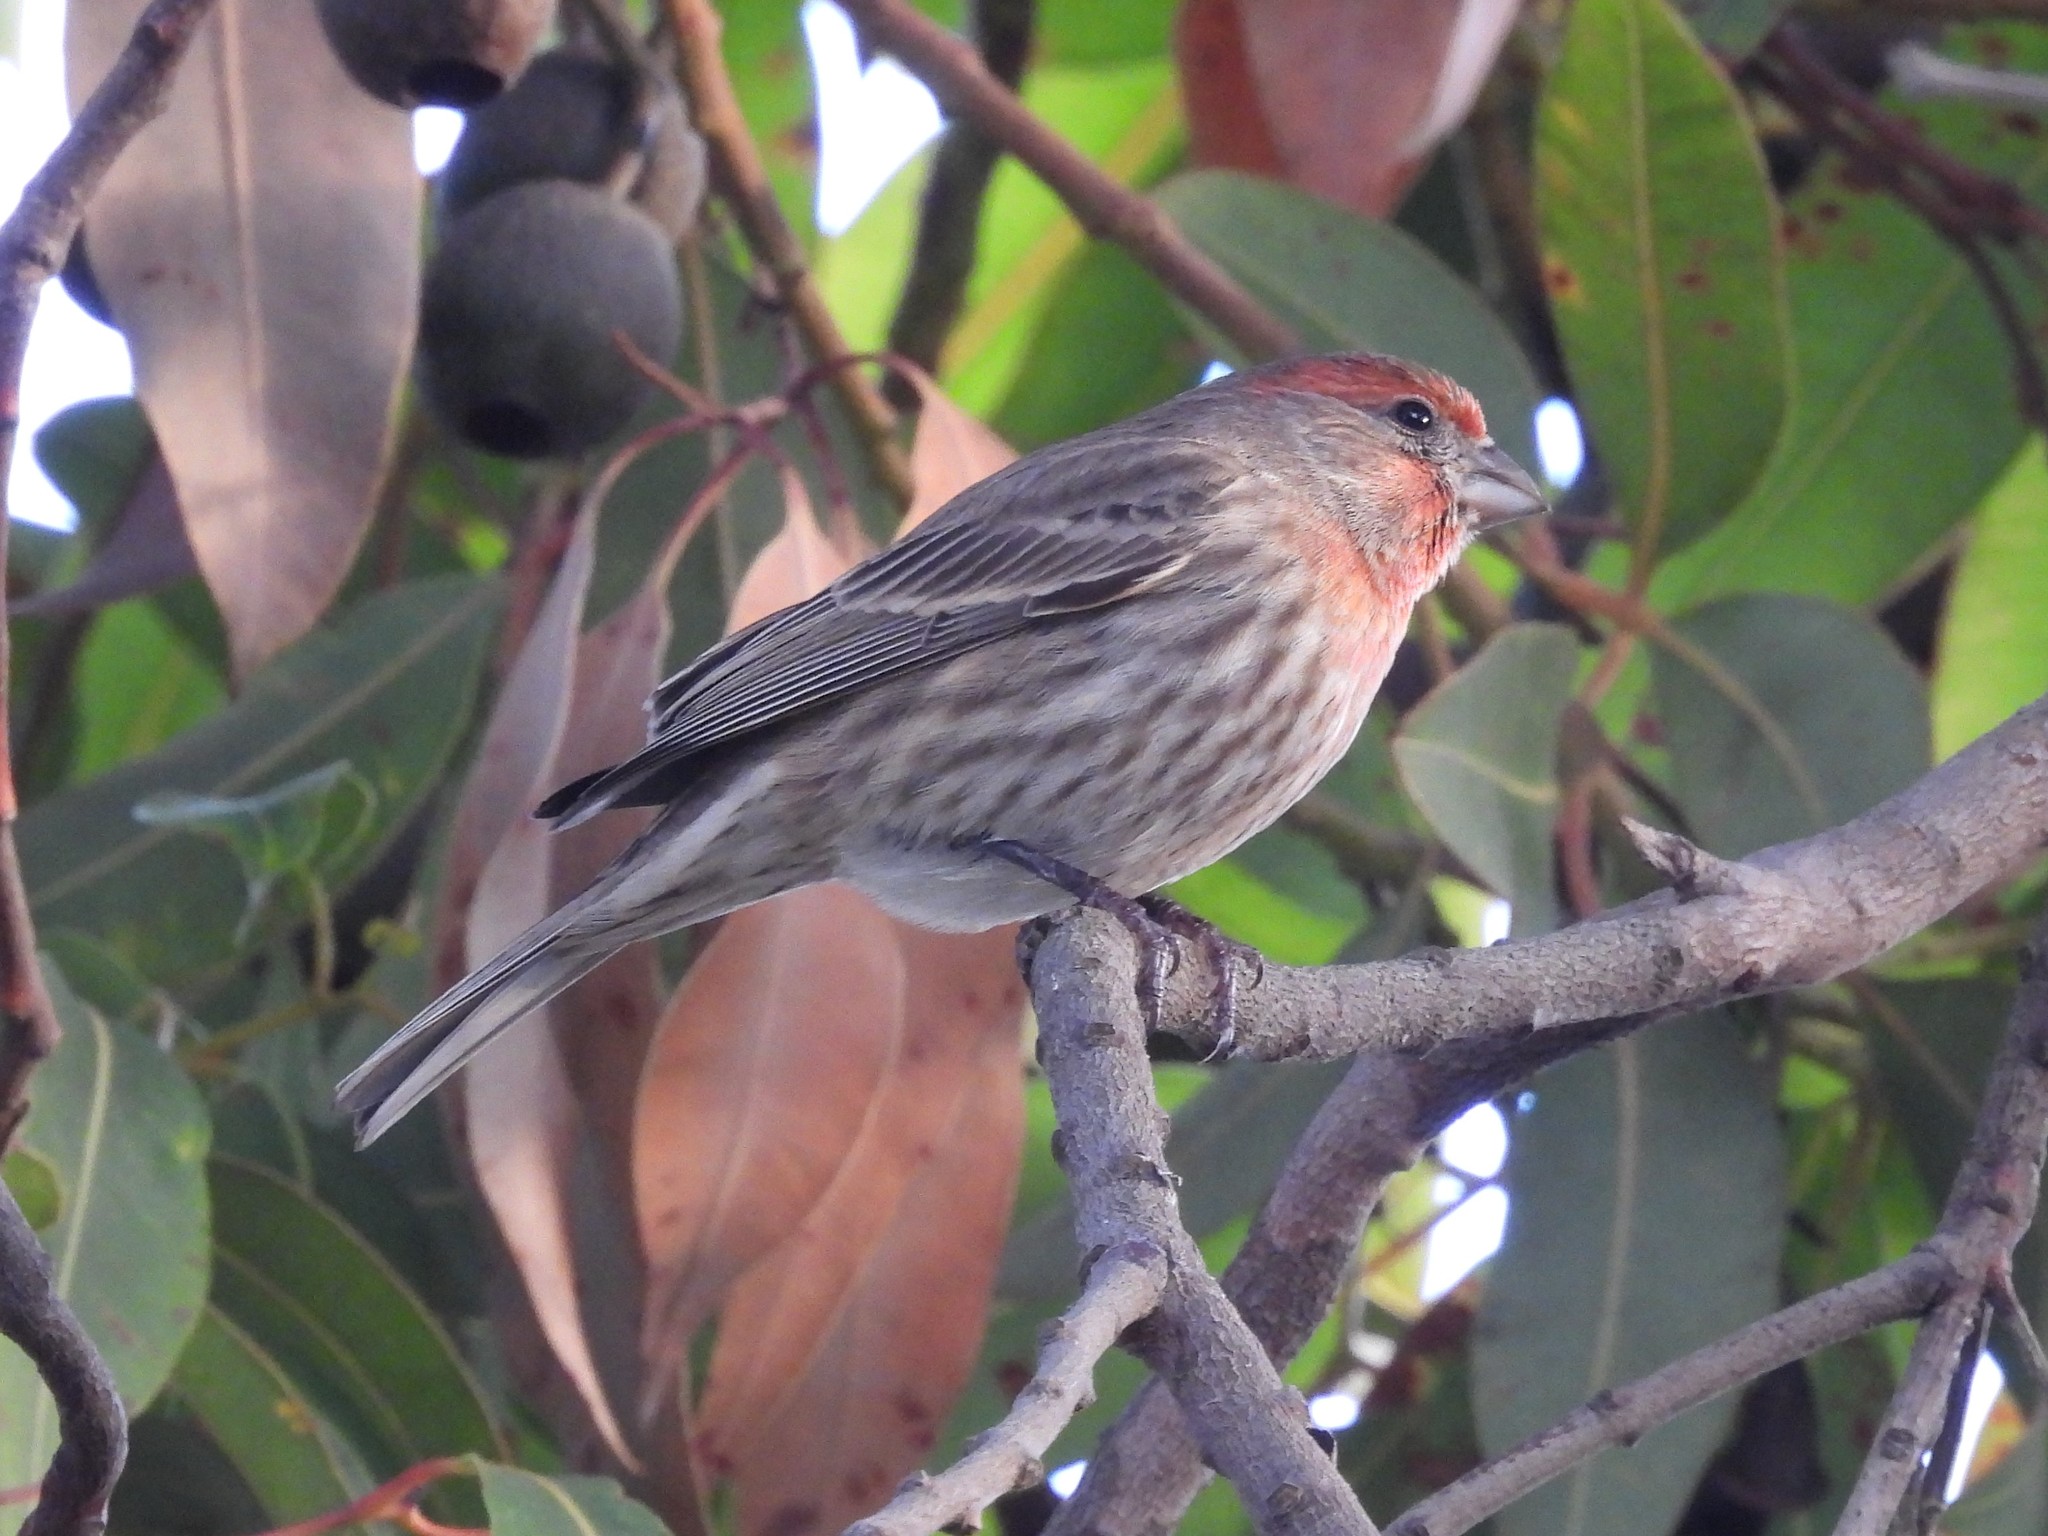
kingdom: Animalia
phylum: Chordata
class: Aves
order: Passeriformes
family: Fringillidae
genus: Haemorhous
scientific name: Haemorhous mexicanus
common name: House finch
